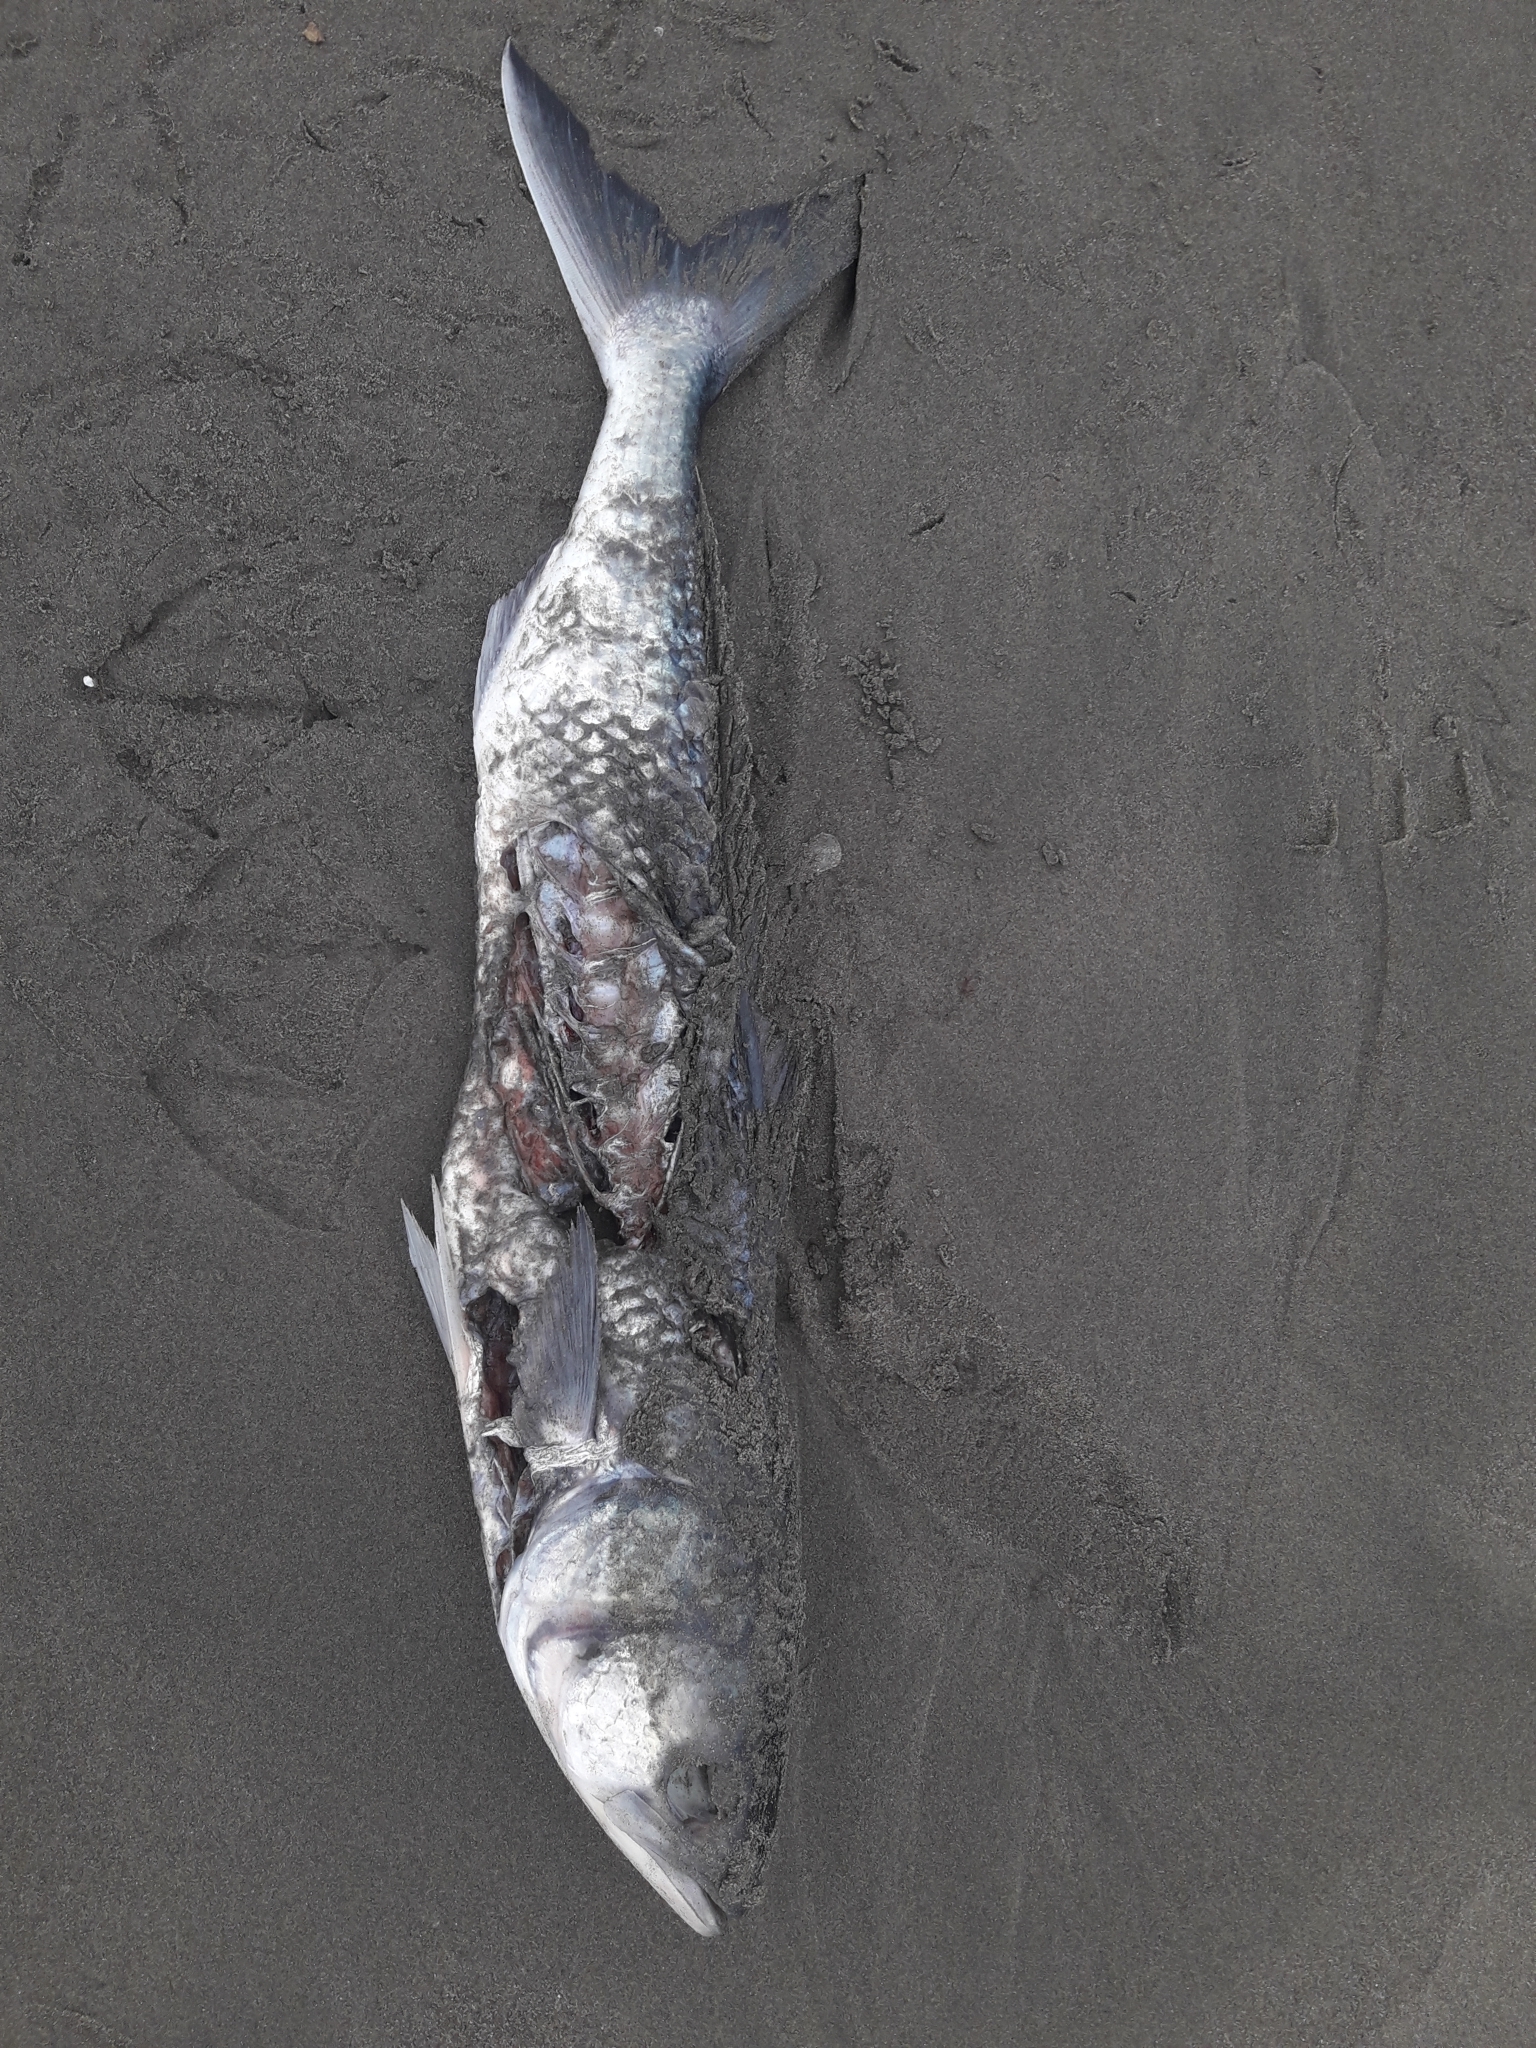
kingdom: Animalia
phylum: Chordata
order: Perciformes
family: Arripidae
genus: Arripis
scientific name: Arripis trutta
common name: Kahawai
